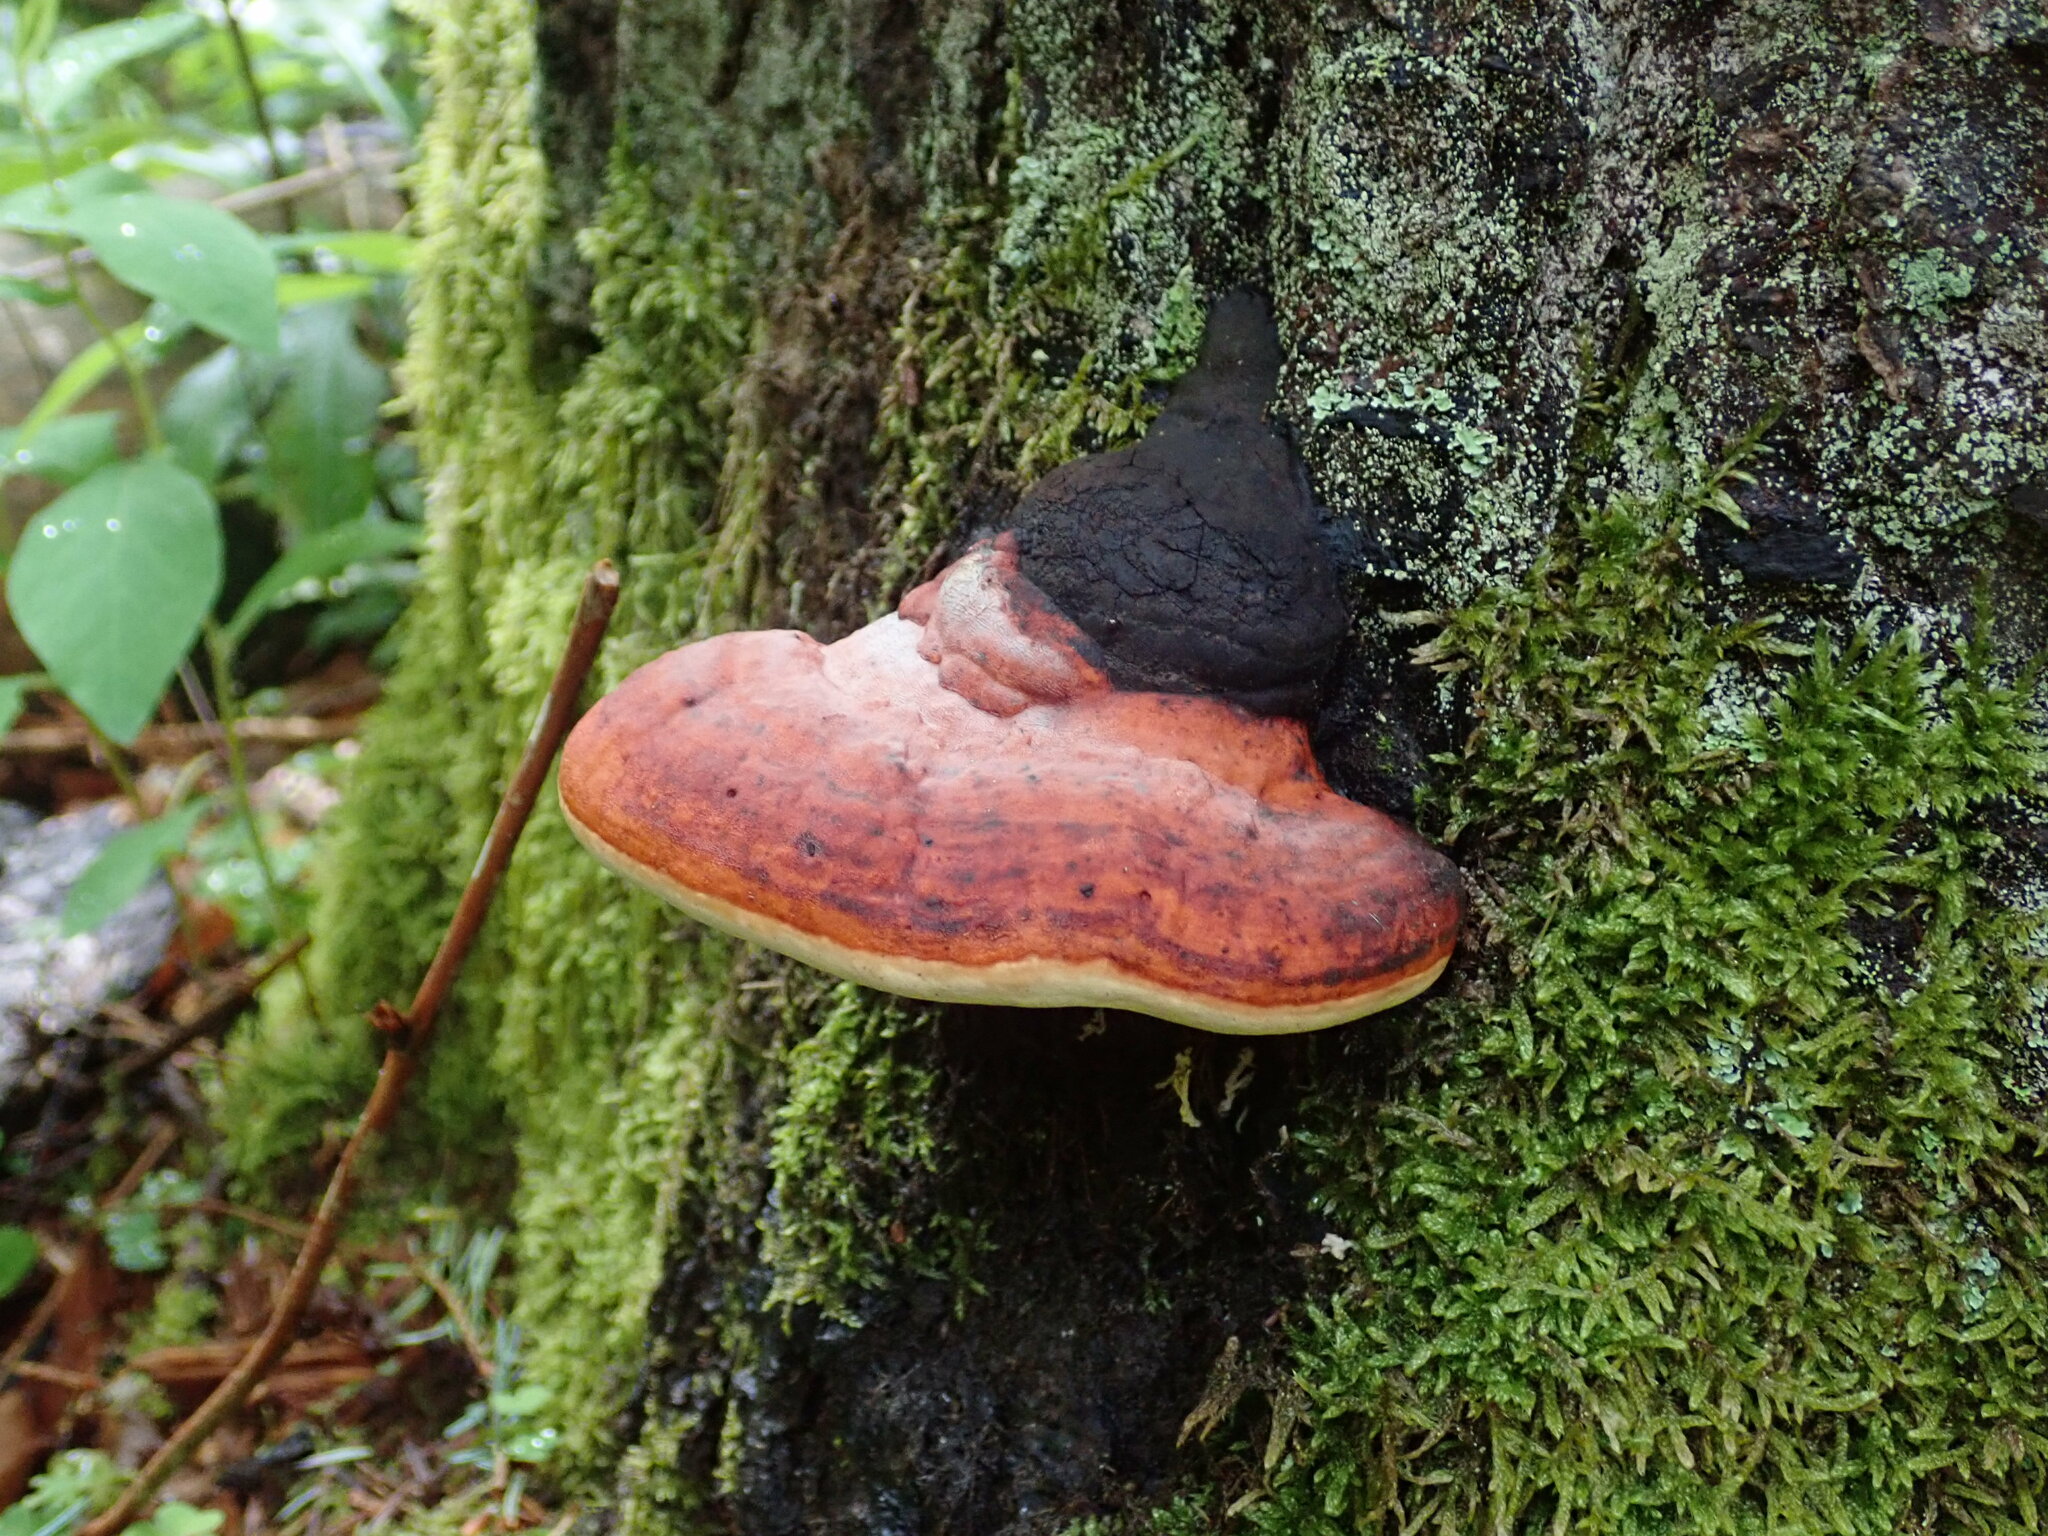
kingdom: Fungi
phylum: Basidiomycota
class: Agaricomycetes
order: Polyporales
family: Fomitopsidaceae
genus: Fomitopsis
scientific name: Fomitopsis pinicola
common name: Red-belted bracket
